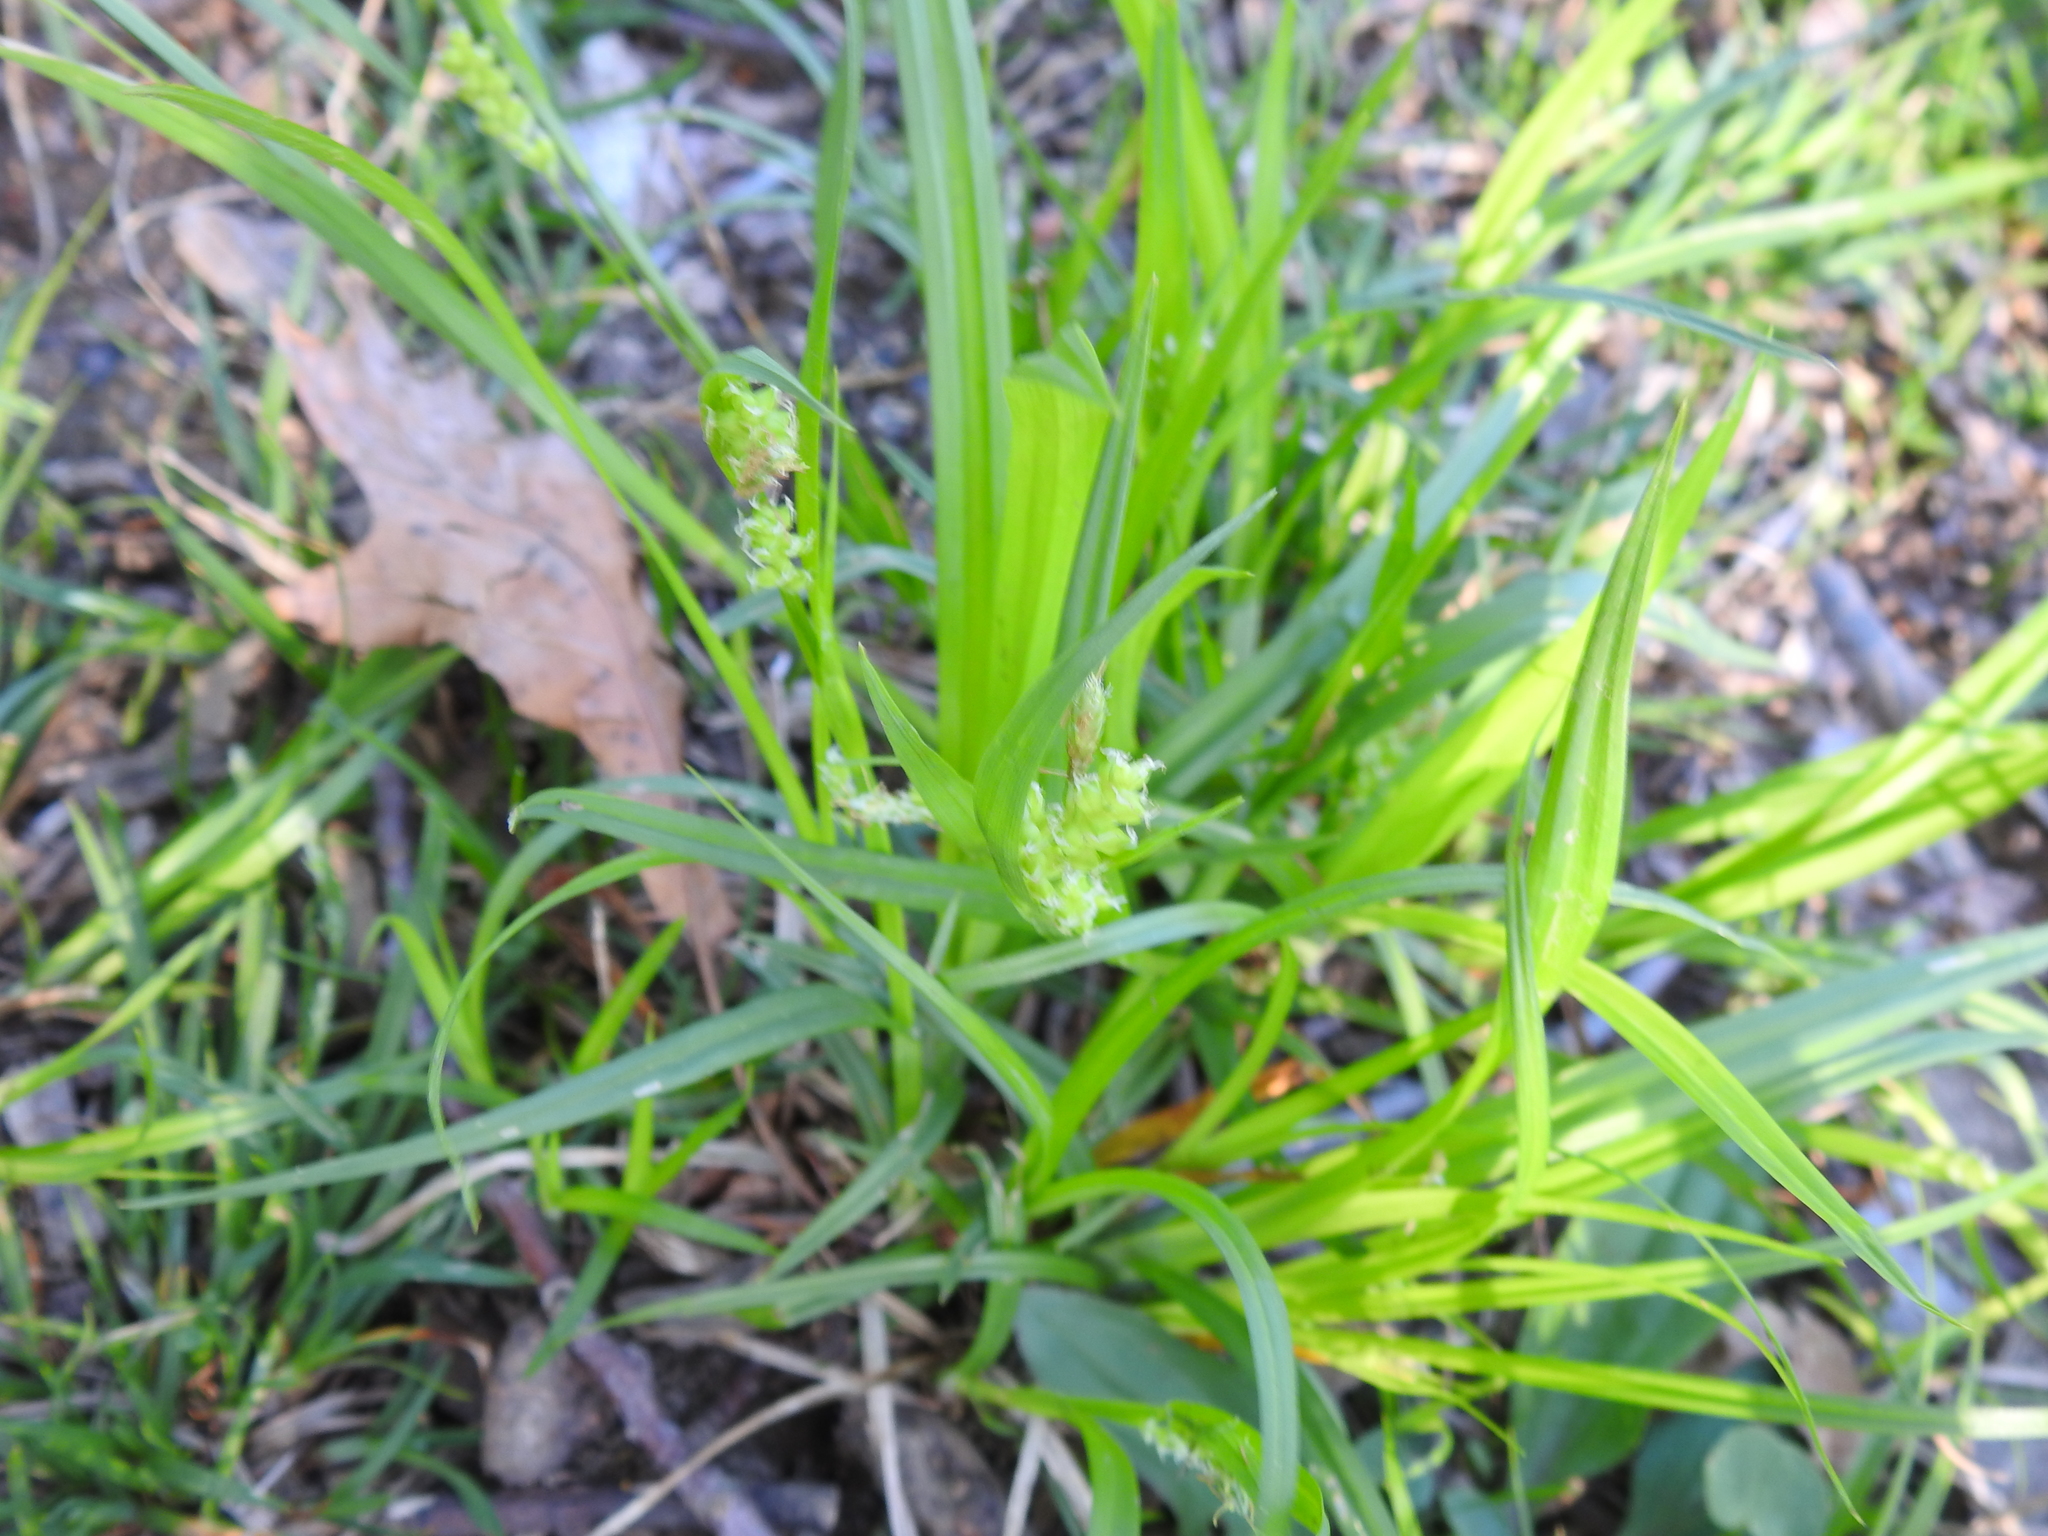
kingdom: Plantae
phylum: Tracheophyta
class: Liliopsida
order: Poales
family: Cyperaceae
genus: Carex
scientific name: Carex blanda
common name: Bland sedge
